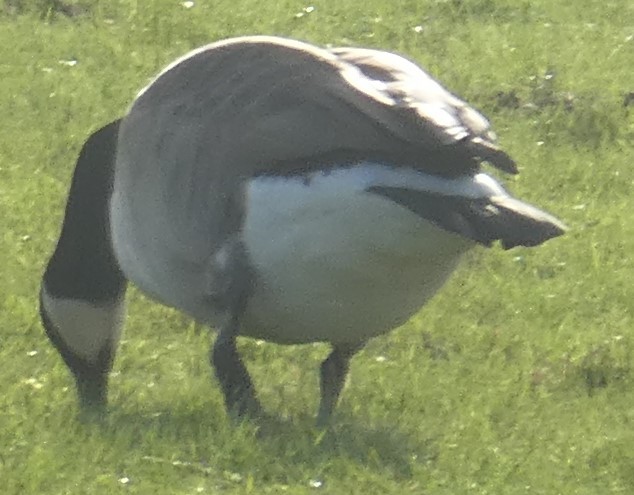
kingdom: Animalia
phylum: Chordata
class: Aves
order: Anseriformes
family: Anatidae
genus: Branta
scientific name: Branta canadensis
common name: Canada goose
